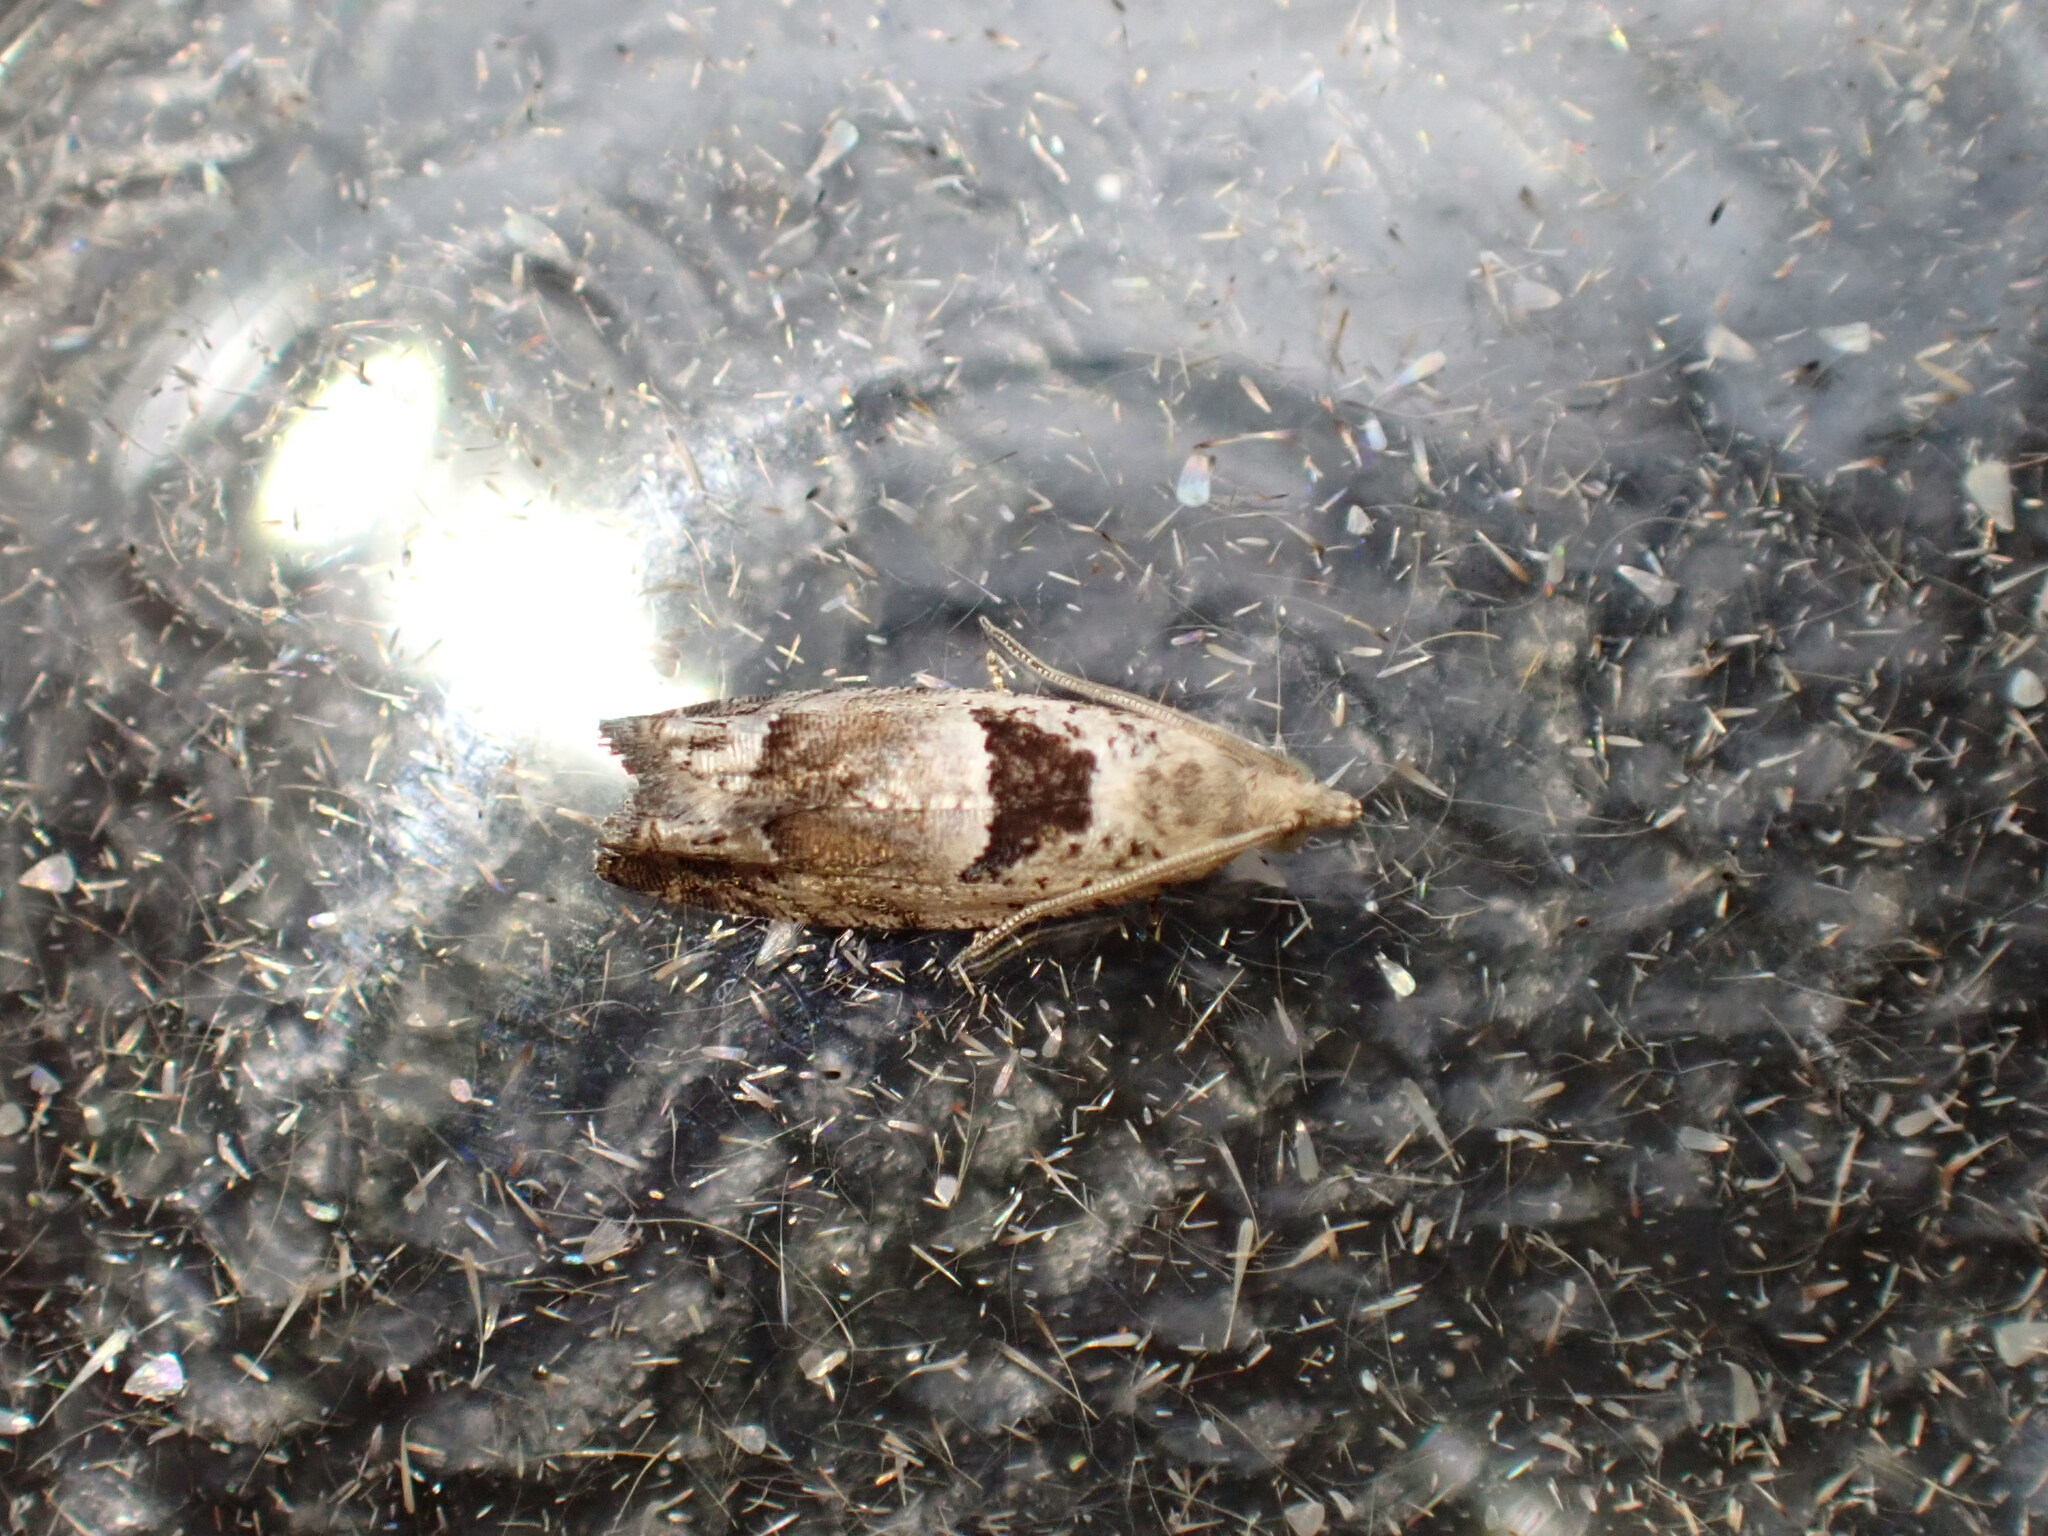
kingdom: Animalia
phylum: Arthropoda
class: Insecta
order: Lepidoptera
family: Tortricidae
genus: Epinotia
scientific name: Epinotia ramella
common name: Small birch bell
